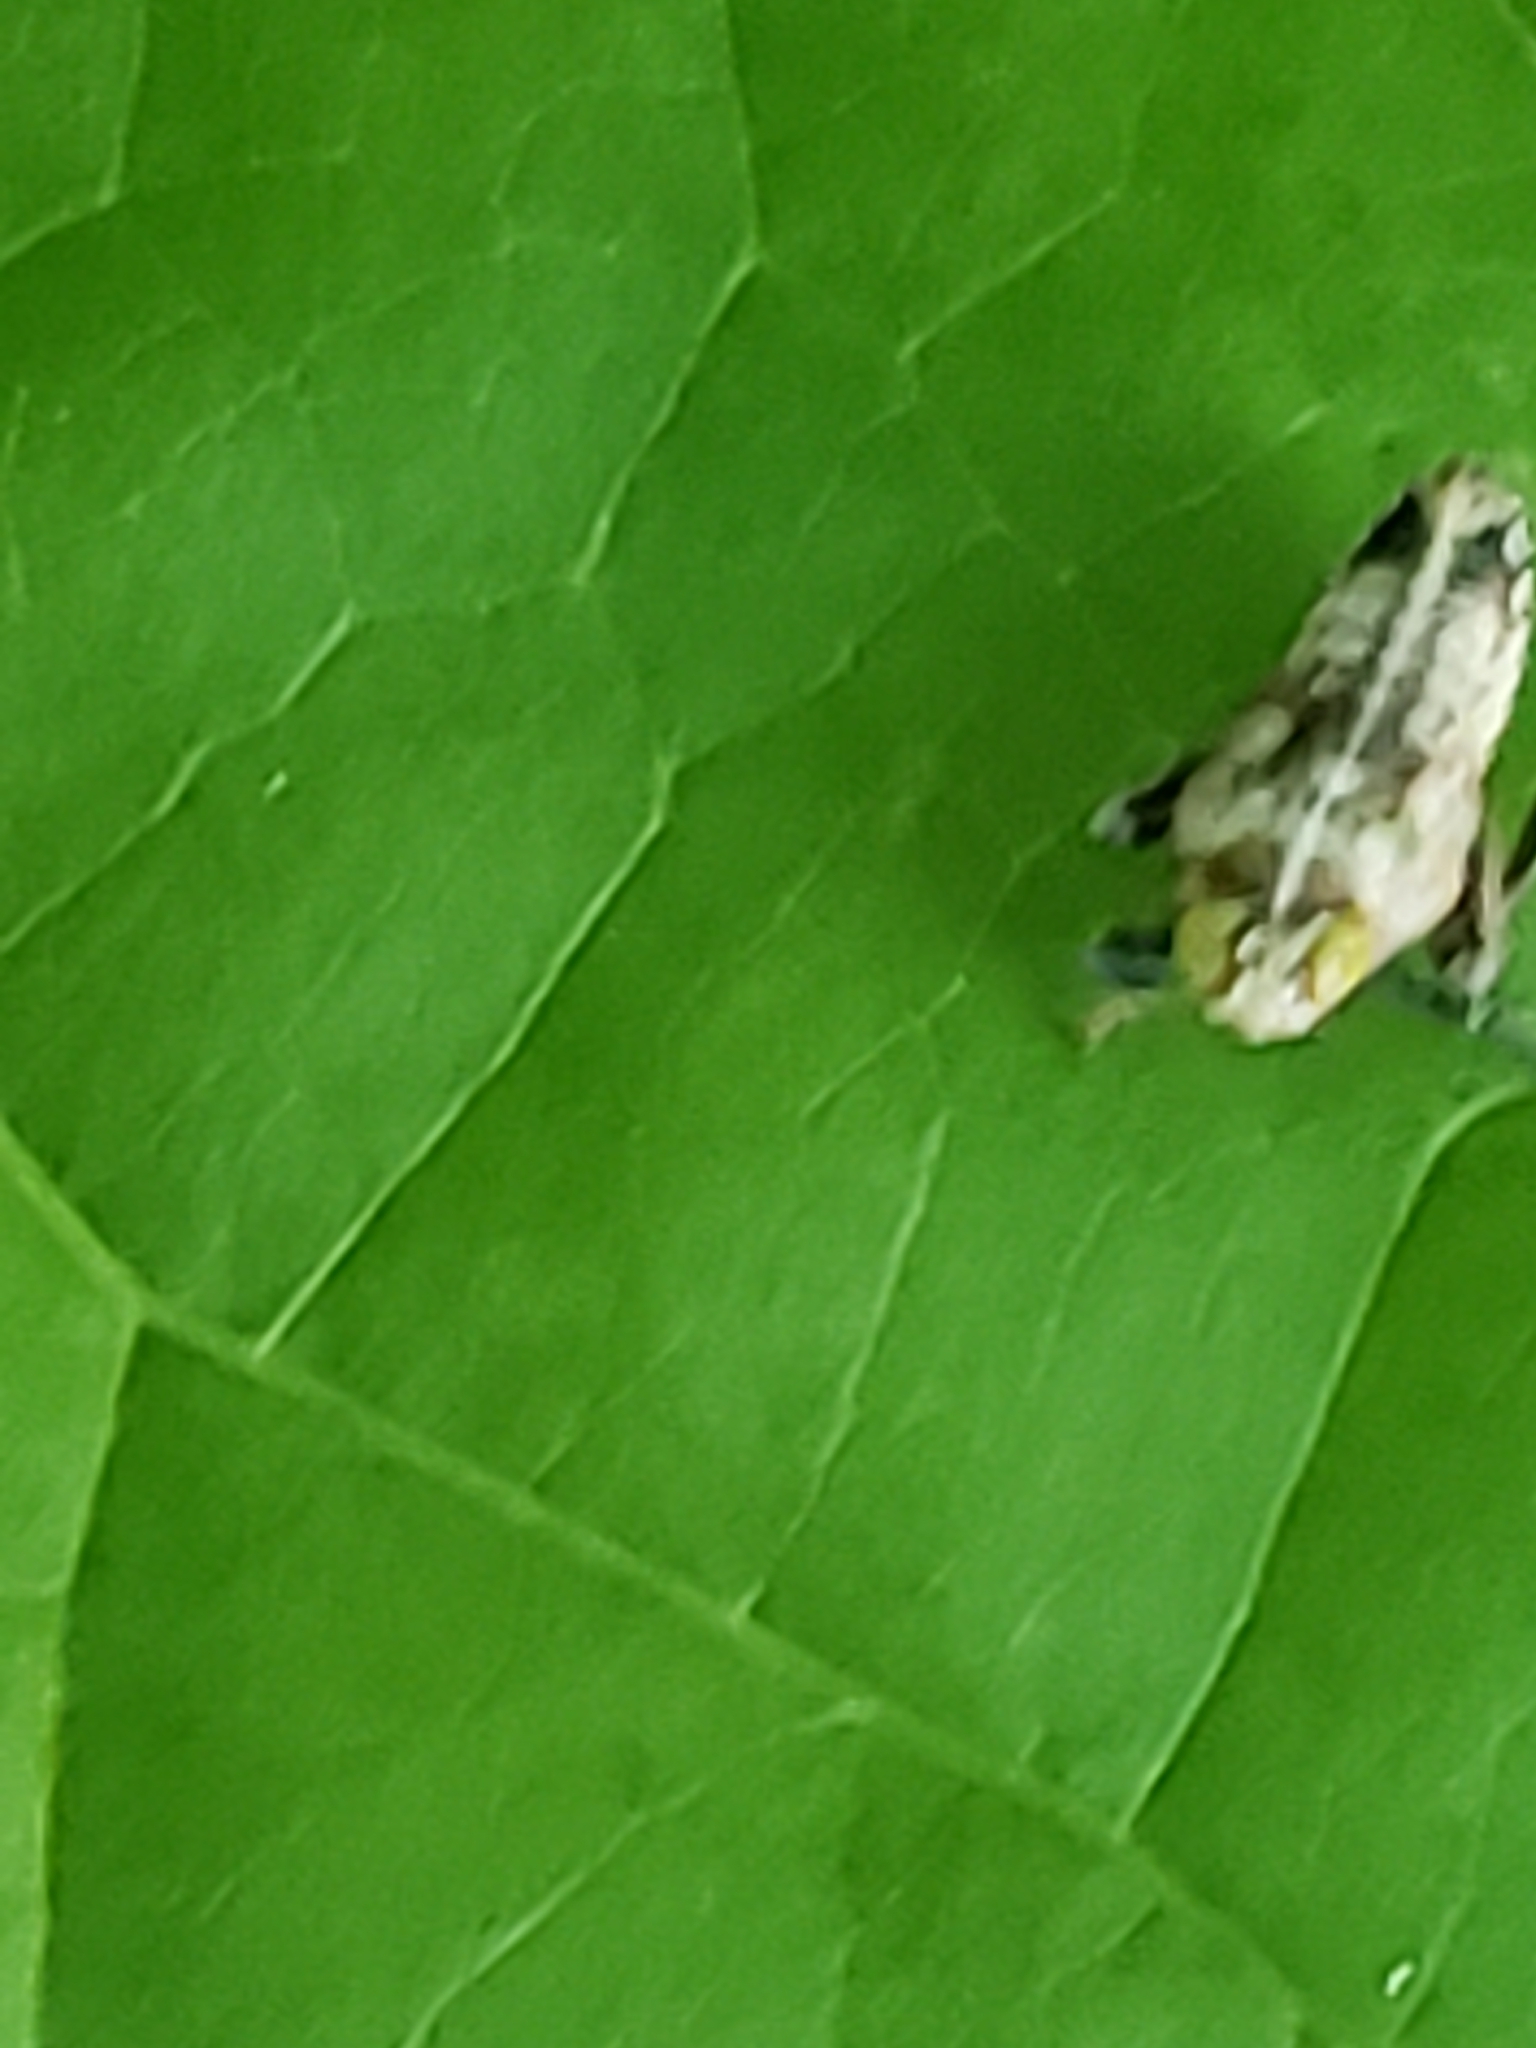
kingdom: Animalia
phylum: Arthropoda
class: Insecta
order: Hemiptera
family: Cicadellidae
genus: Jikradia
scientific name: Jikradia olitoria
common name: Coppery leafhopper
